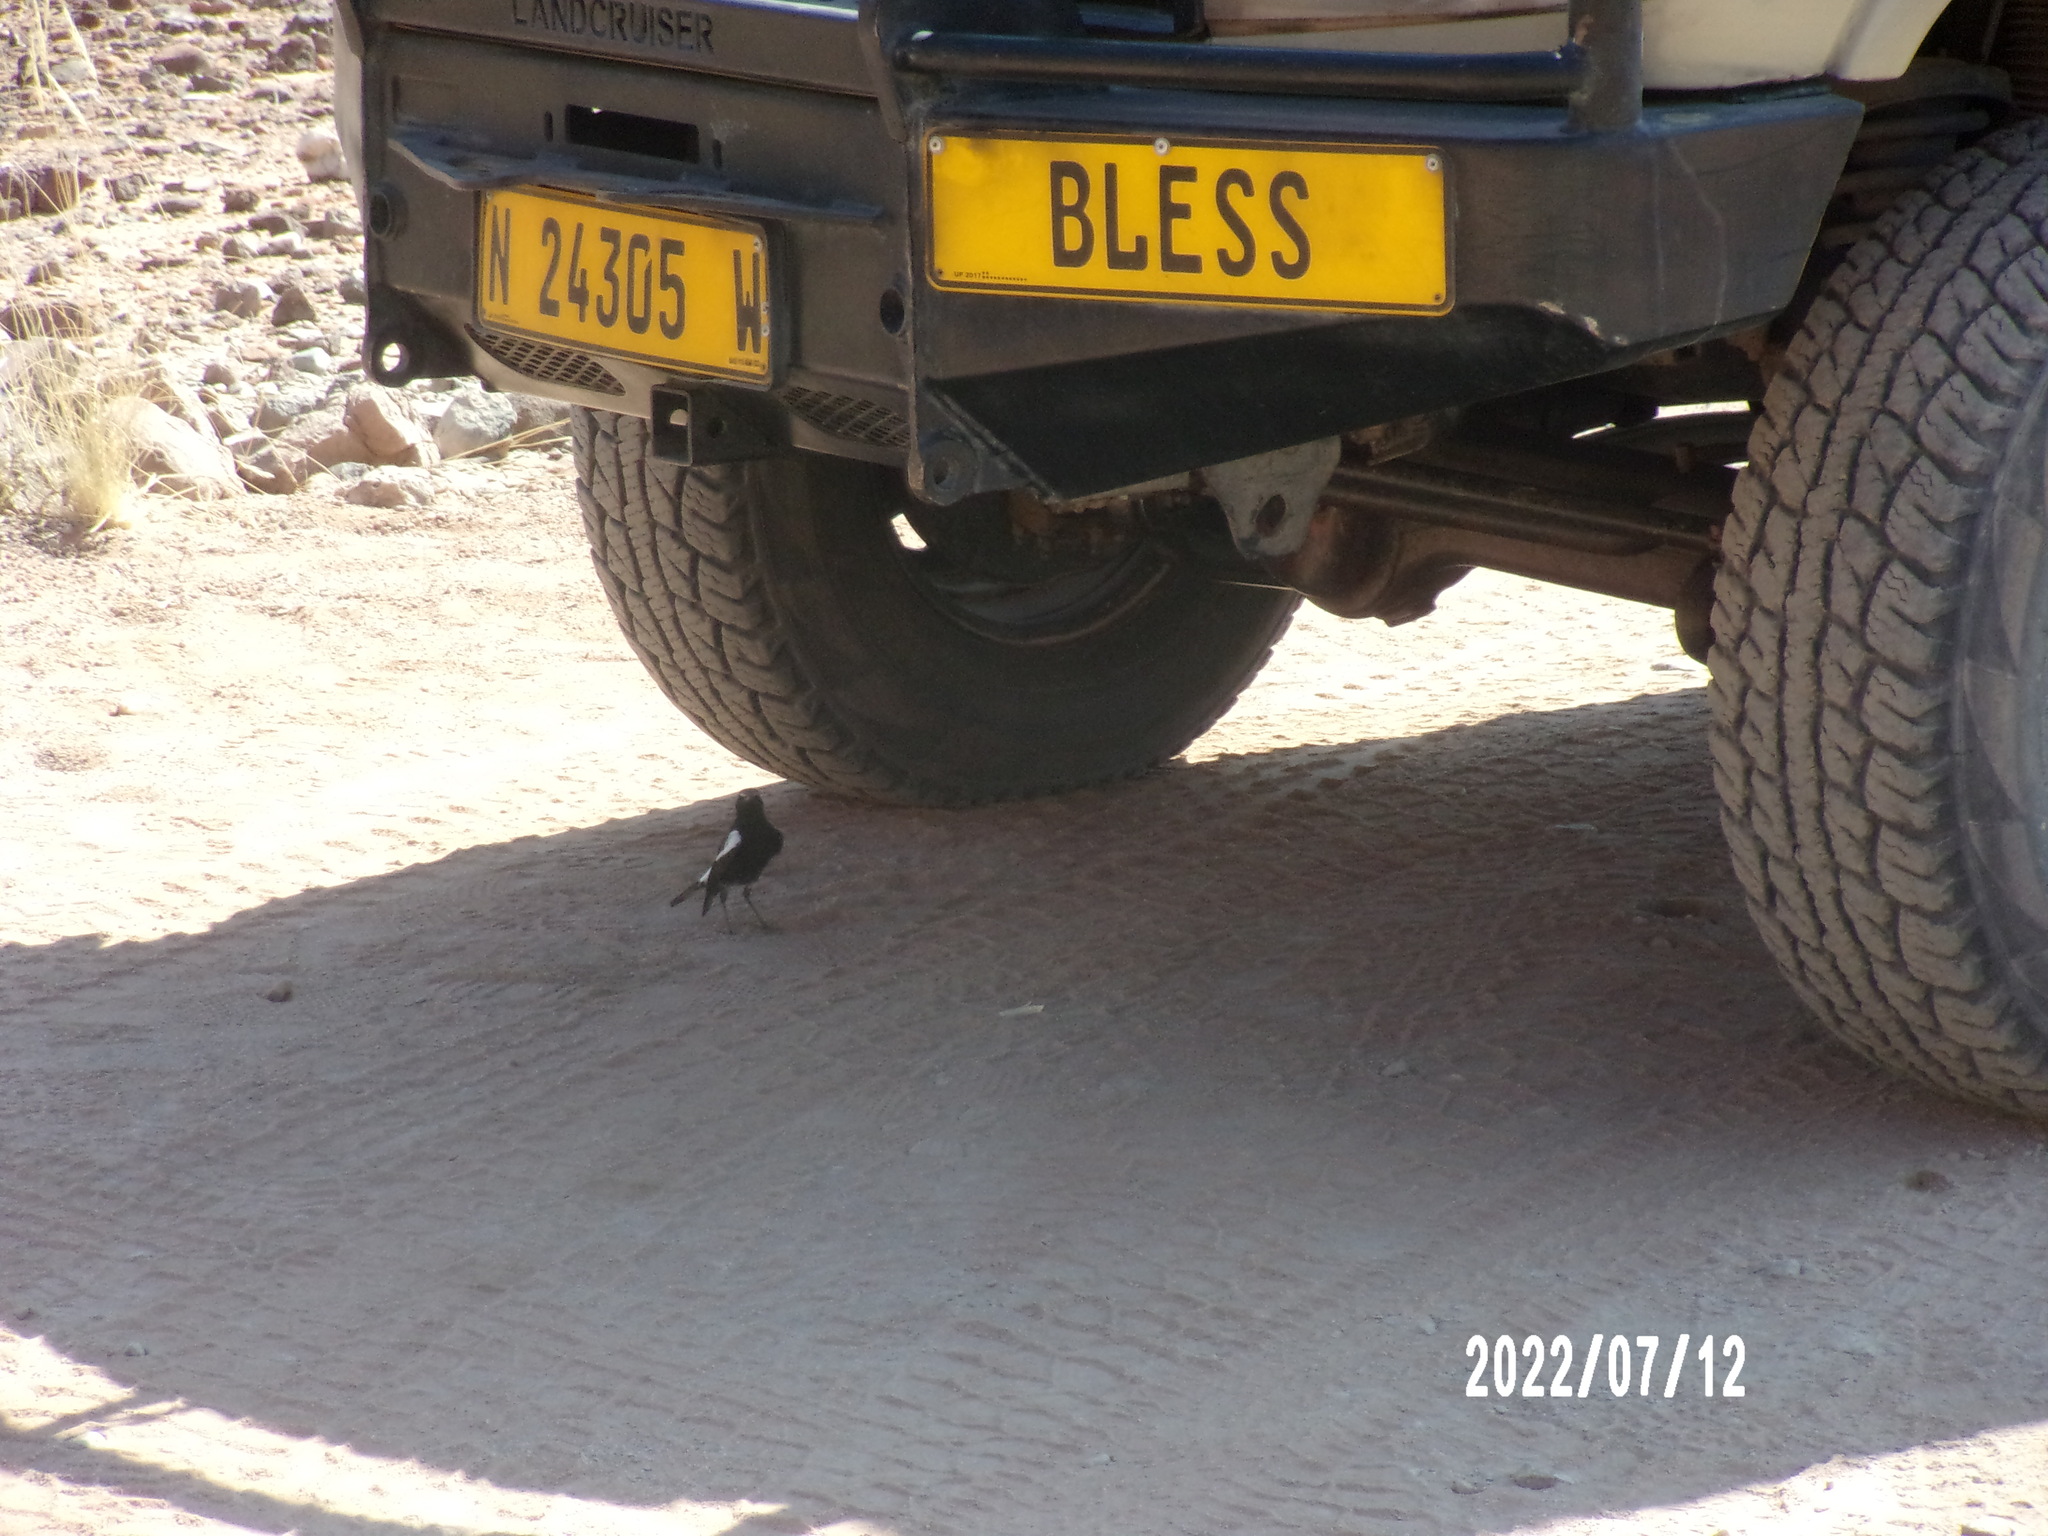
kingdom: Animalia
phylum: Chordata
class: Aves
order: Passeriformes
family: Muscicapidae
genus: Oenanthe
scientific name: Oenanthe monticola
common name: Mountain wheatear
